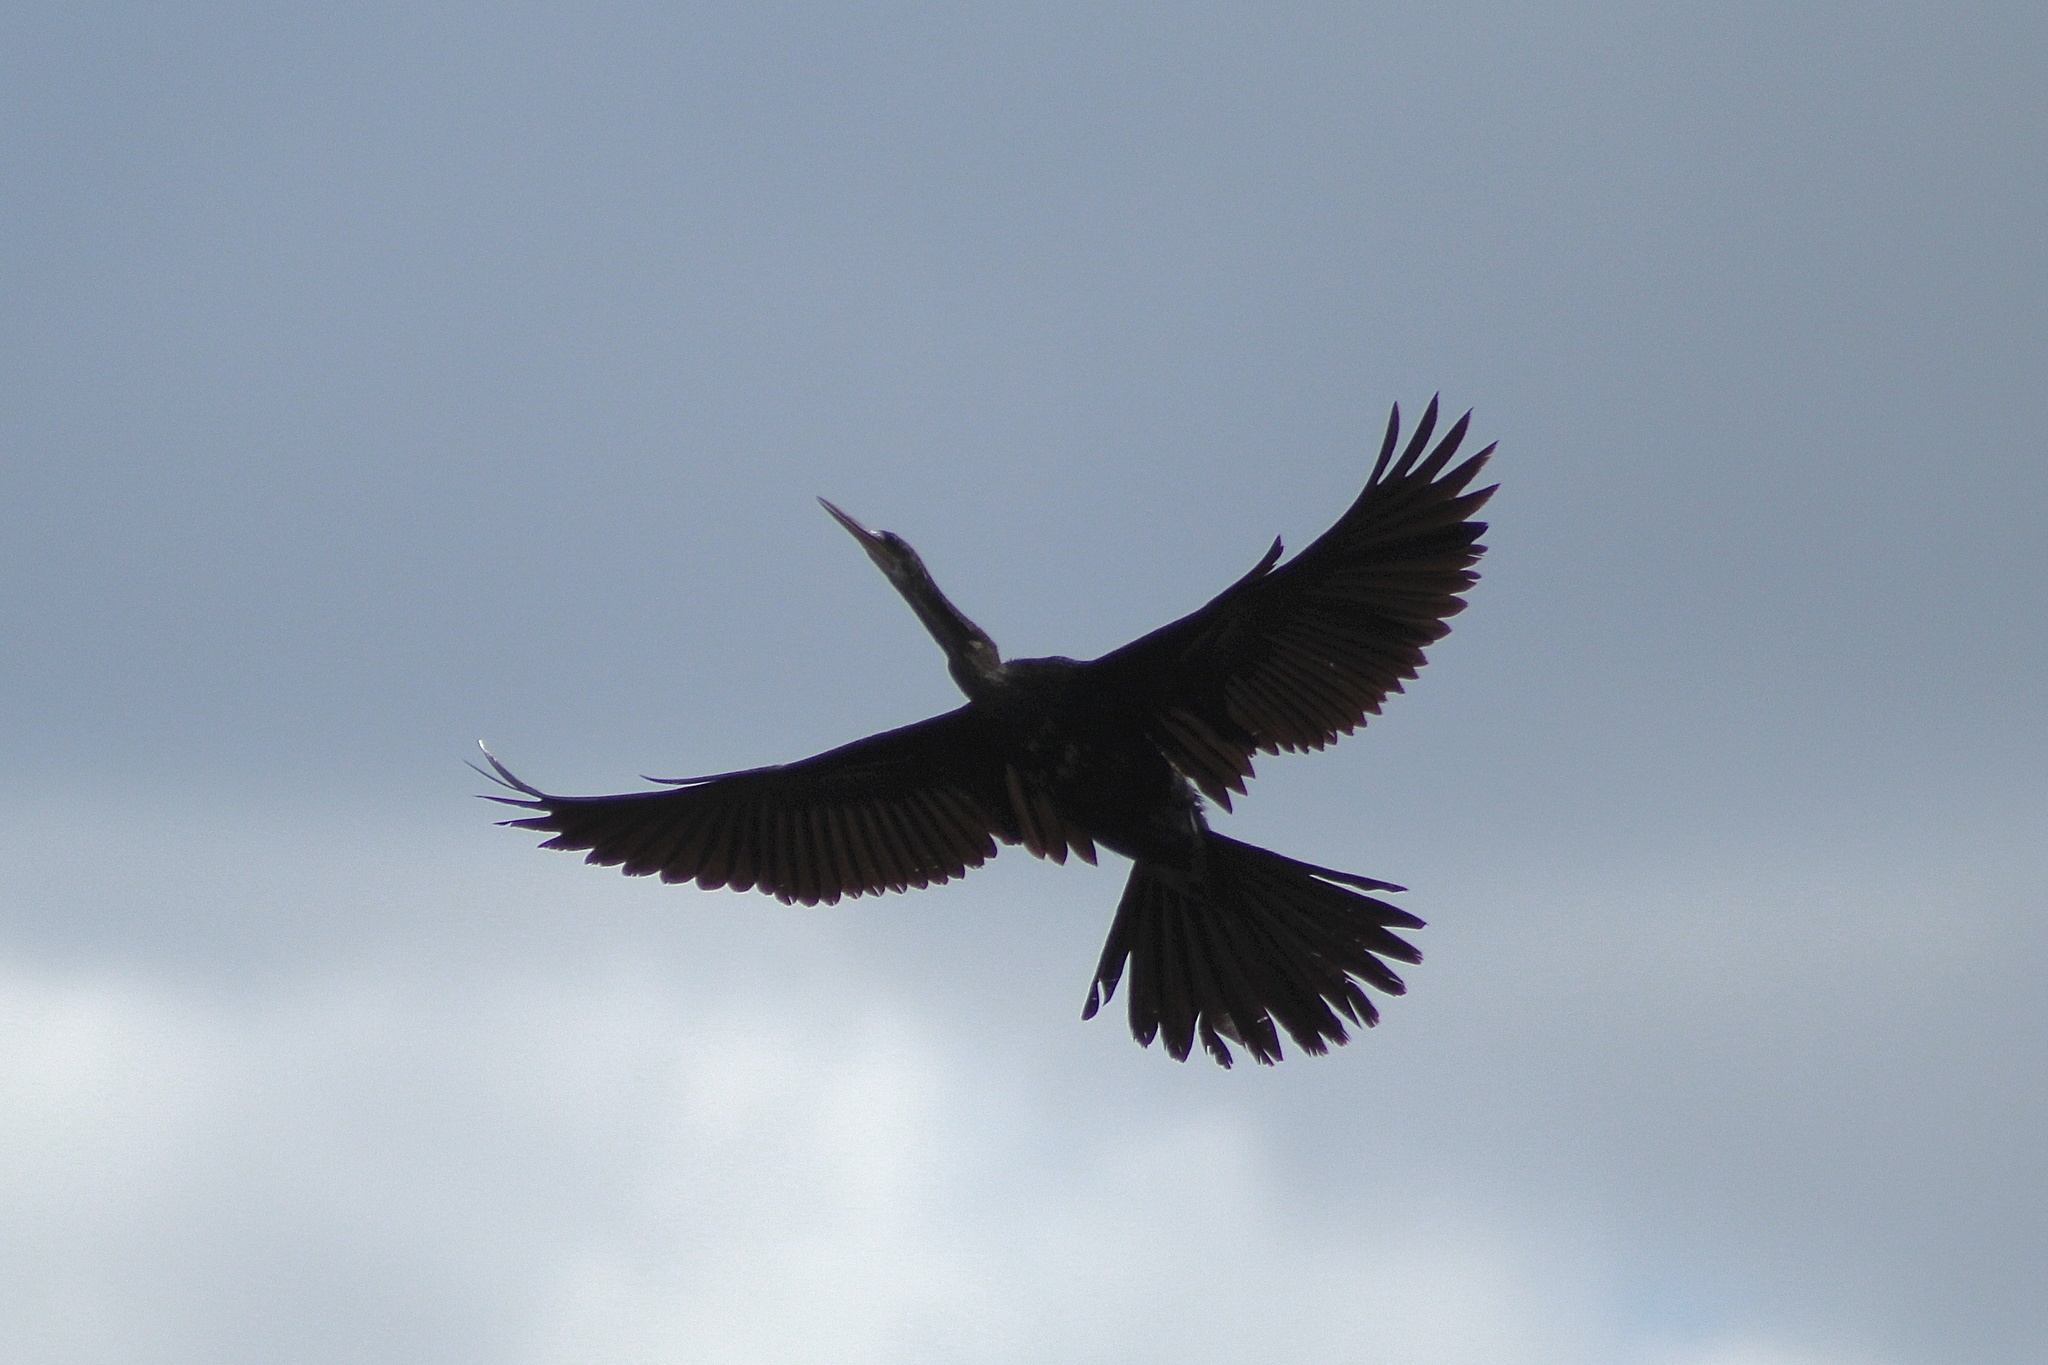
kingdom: Animalia
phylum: Chordata
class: Aves
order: Suliformes
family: Anhingidae
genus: Anhinga
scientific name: Anhinga anhinga
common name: Anhinga
